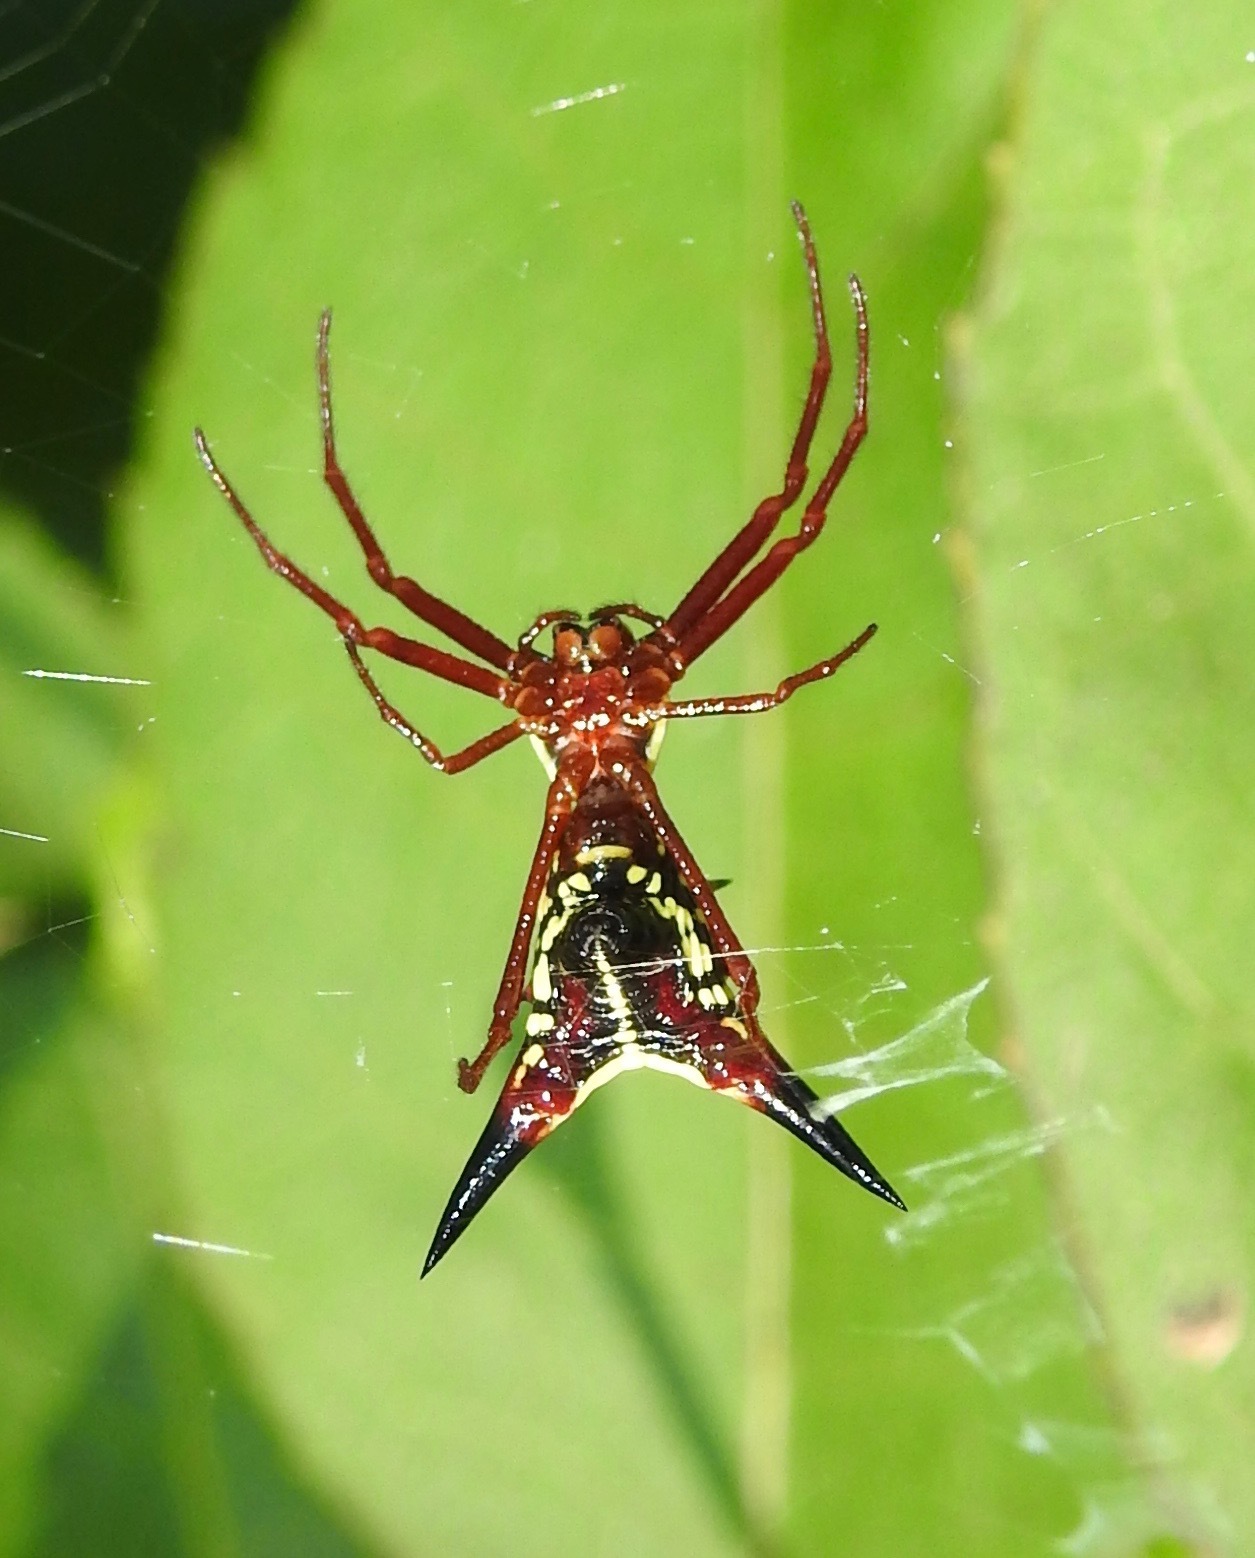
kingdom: Animalia
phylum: Arthropoda
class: Arachnida
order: Araneae
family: Araneidae
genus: Micrathena
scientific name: Micrathena sagittata
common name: Orb weavers
